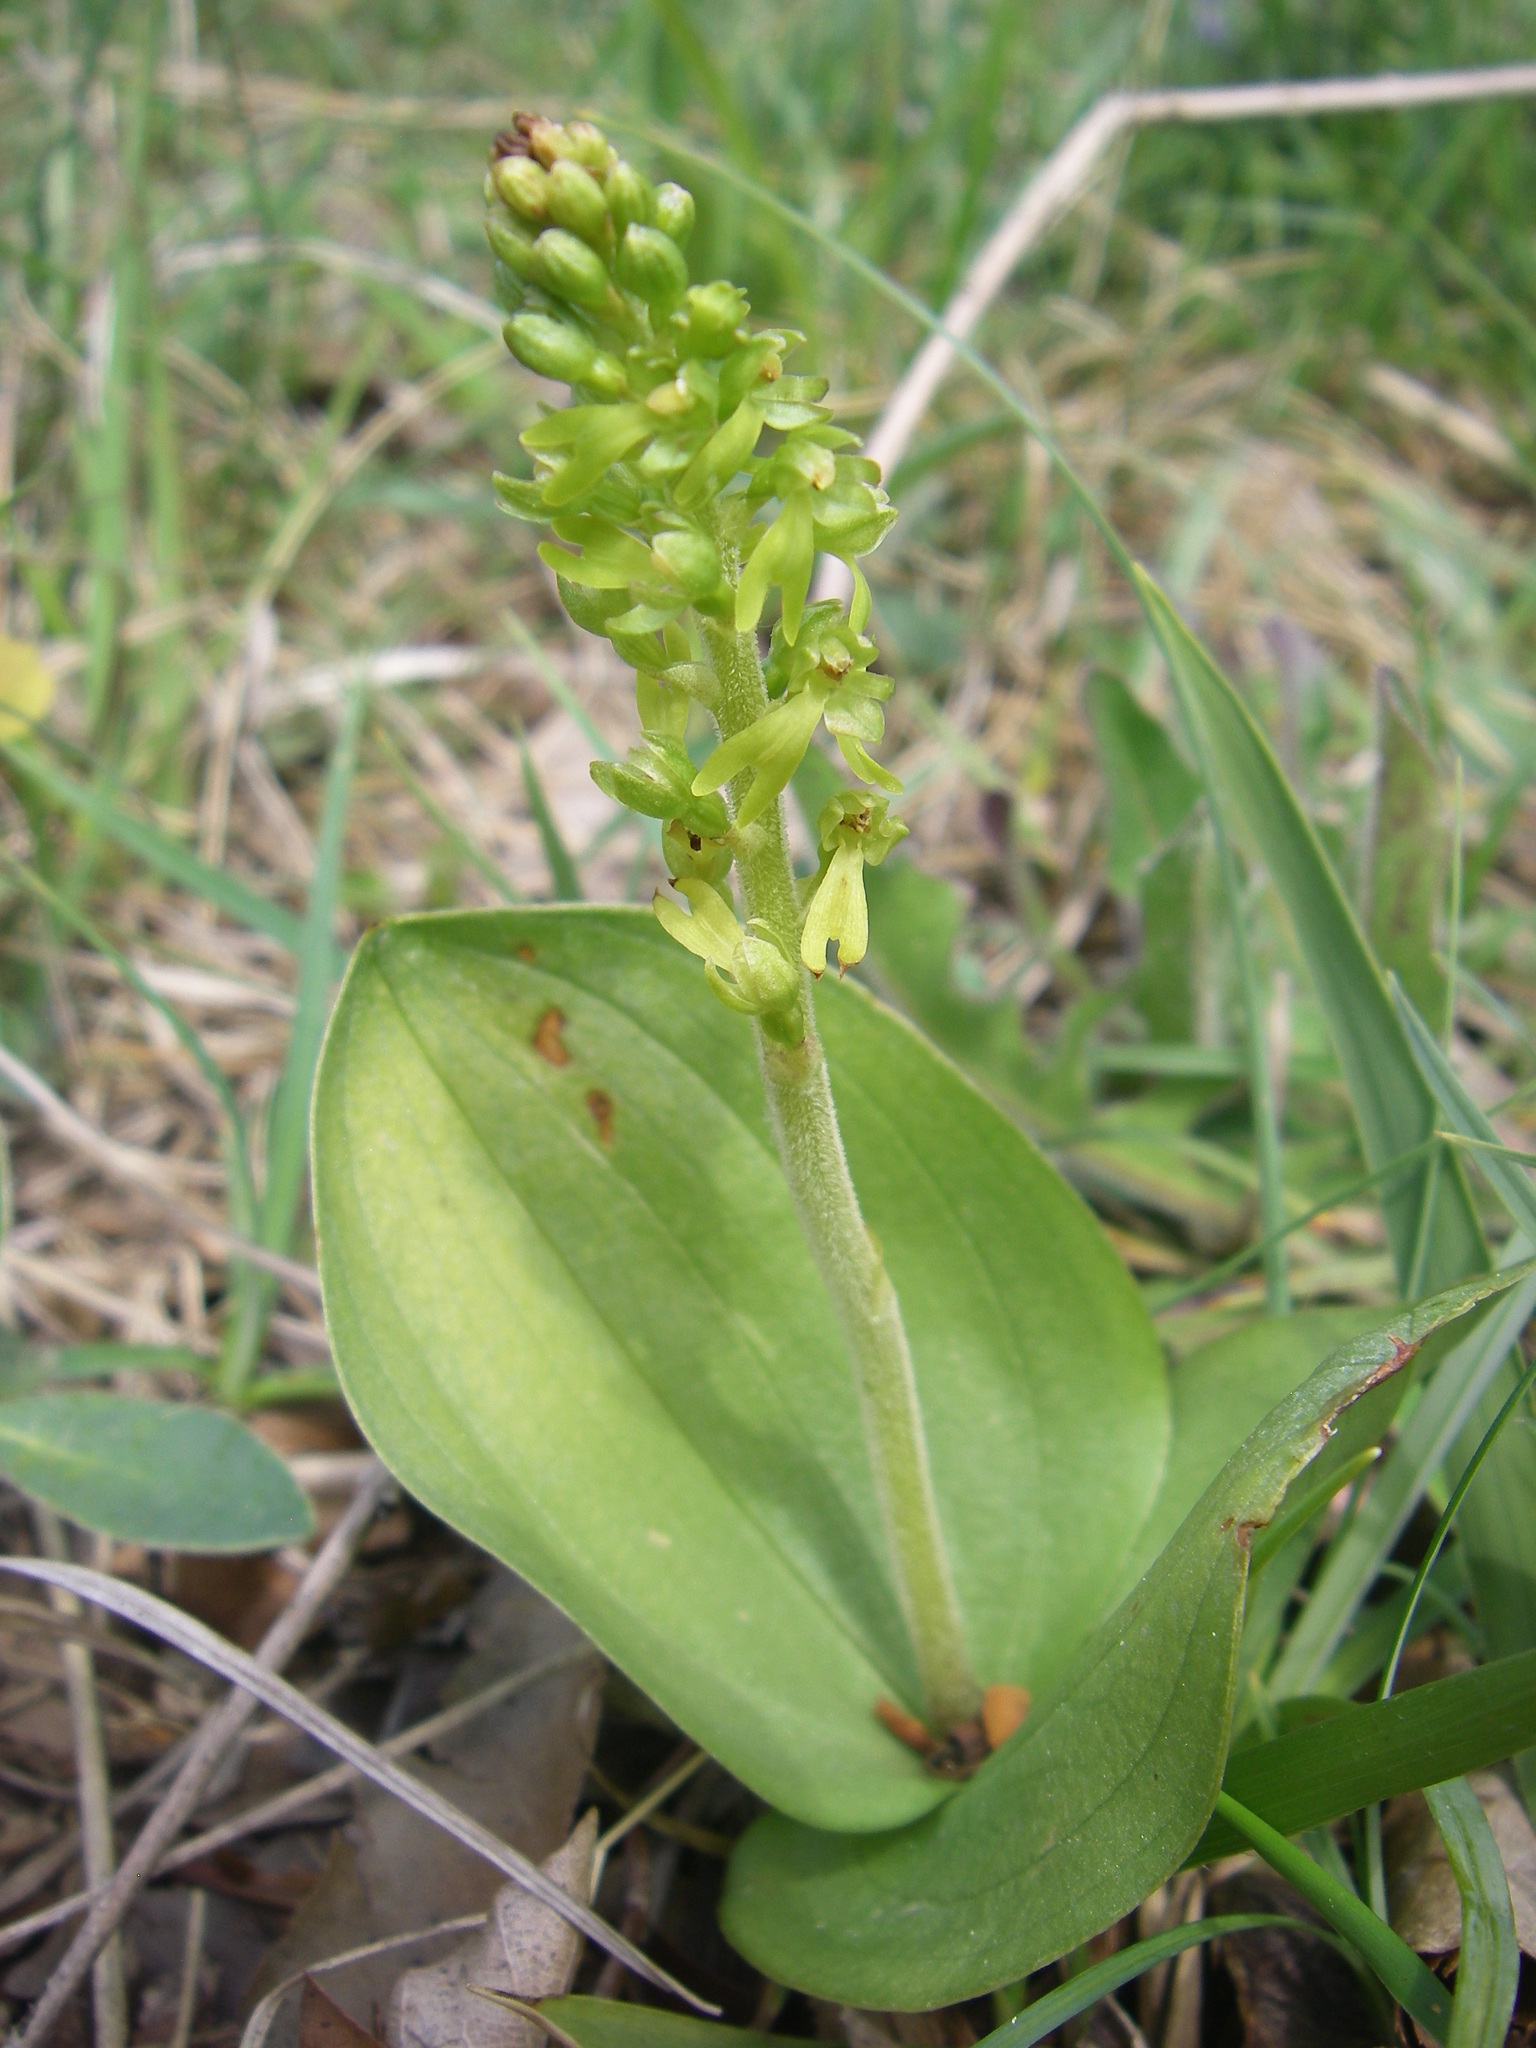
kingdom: Plantae
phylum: Tracheophyta
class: Liliopsida
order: Asparagales
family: Orchidaceae
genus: Neottia
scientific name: Neottia ovata
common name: Common twayblade
